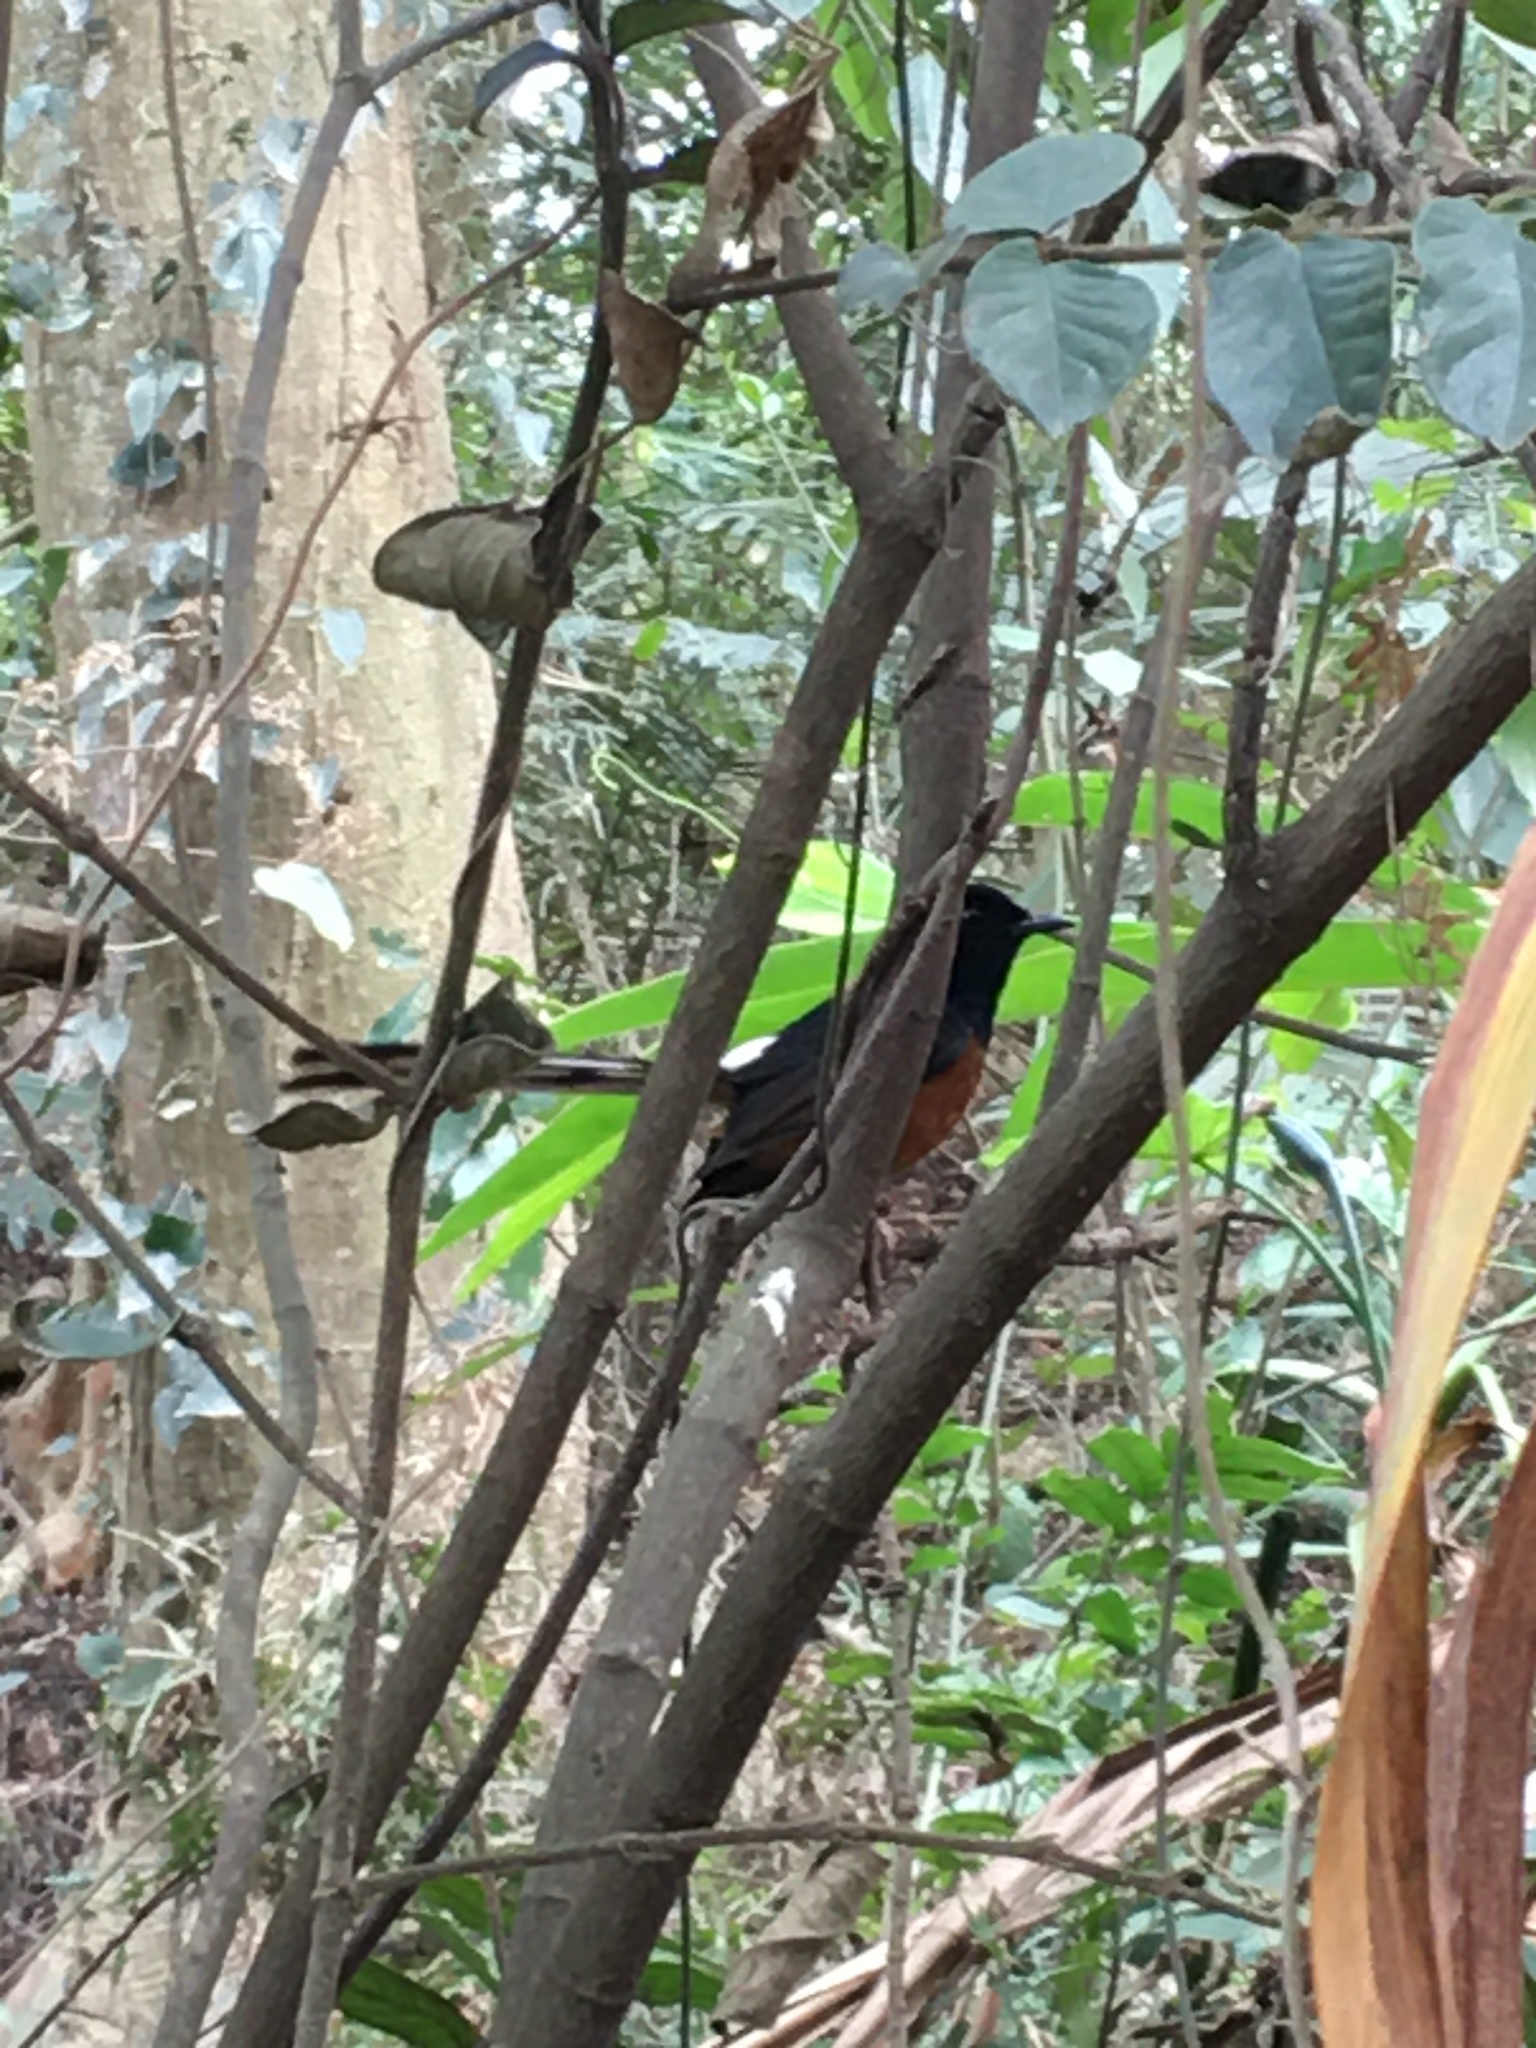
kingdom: Animalia
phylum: Chordata
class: Aves
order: Passeriformes
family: Muscicapidae
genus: Copsychus
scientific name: Copsychus malabaricus
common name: White-rumped shama
